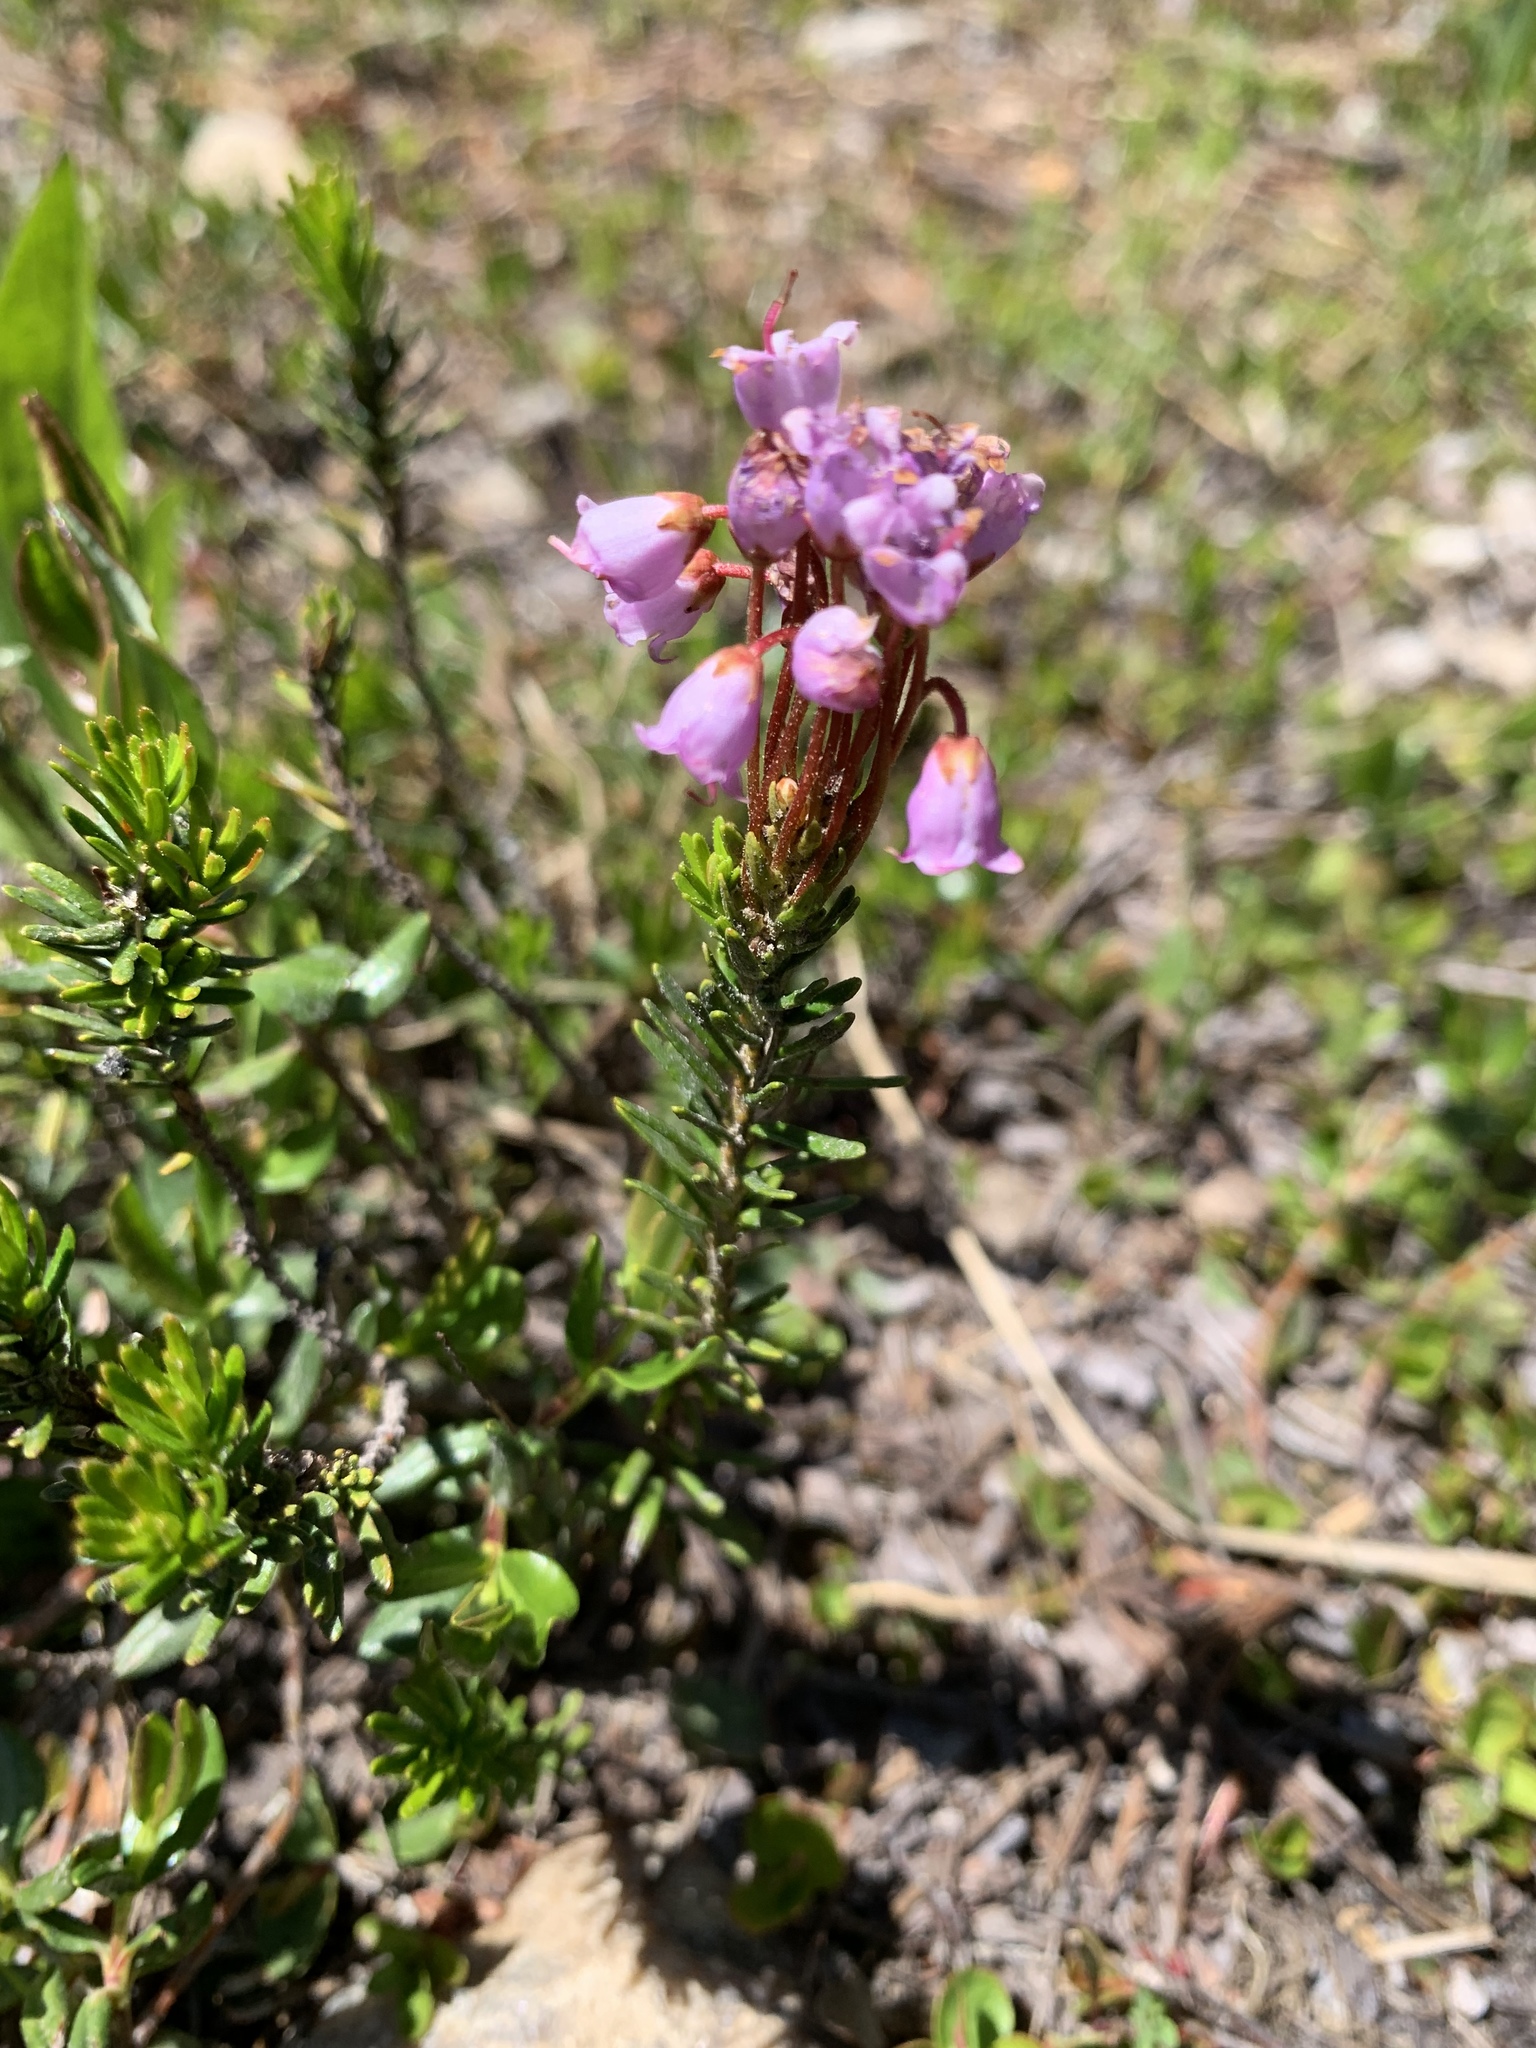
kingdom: Plantae
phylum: Tracheophyta
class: Magnoliopsida
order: Ericales
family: Ericaceae
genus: Phyllodoce
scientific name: Phyllodoce empetriformis
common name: Pink mountain heather
